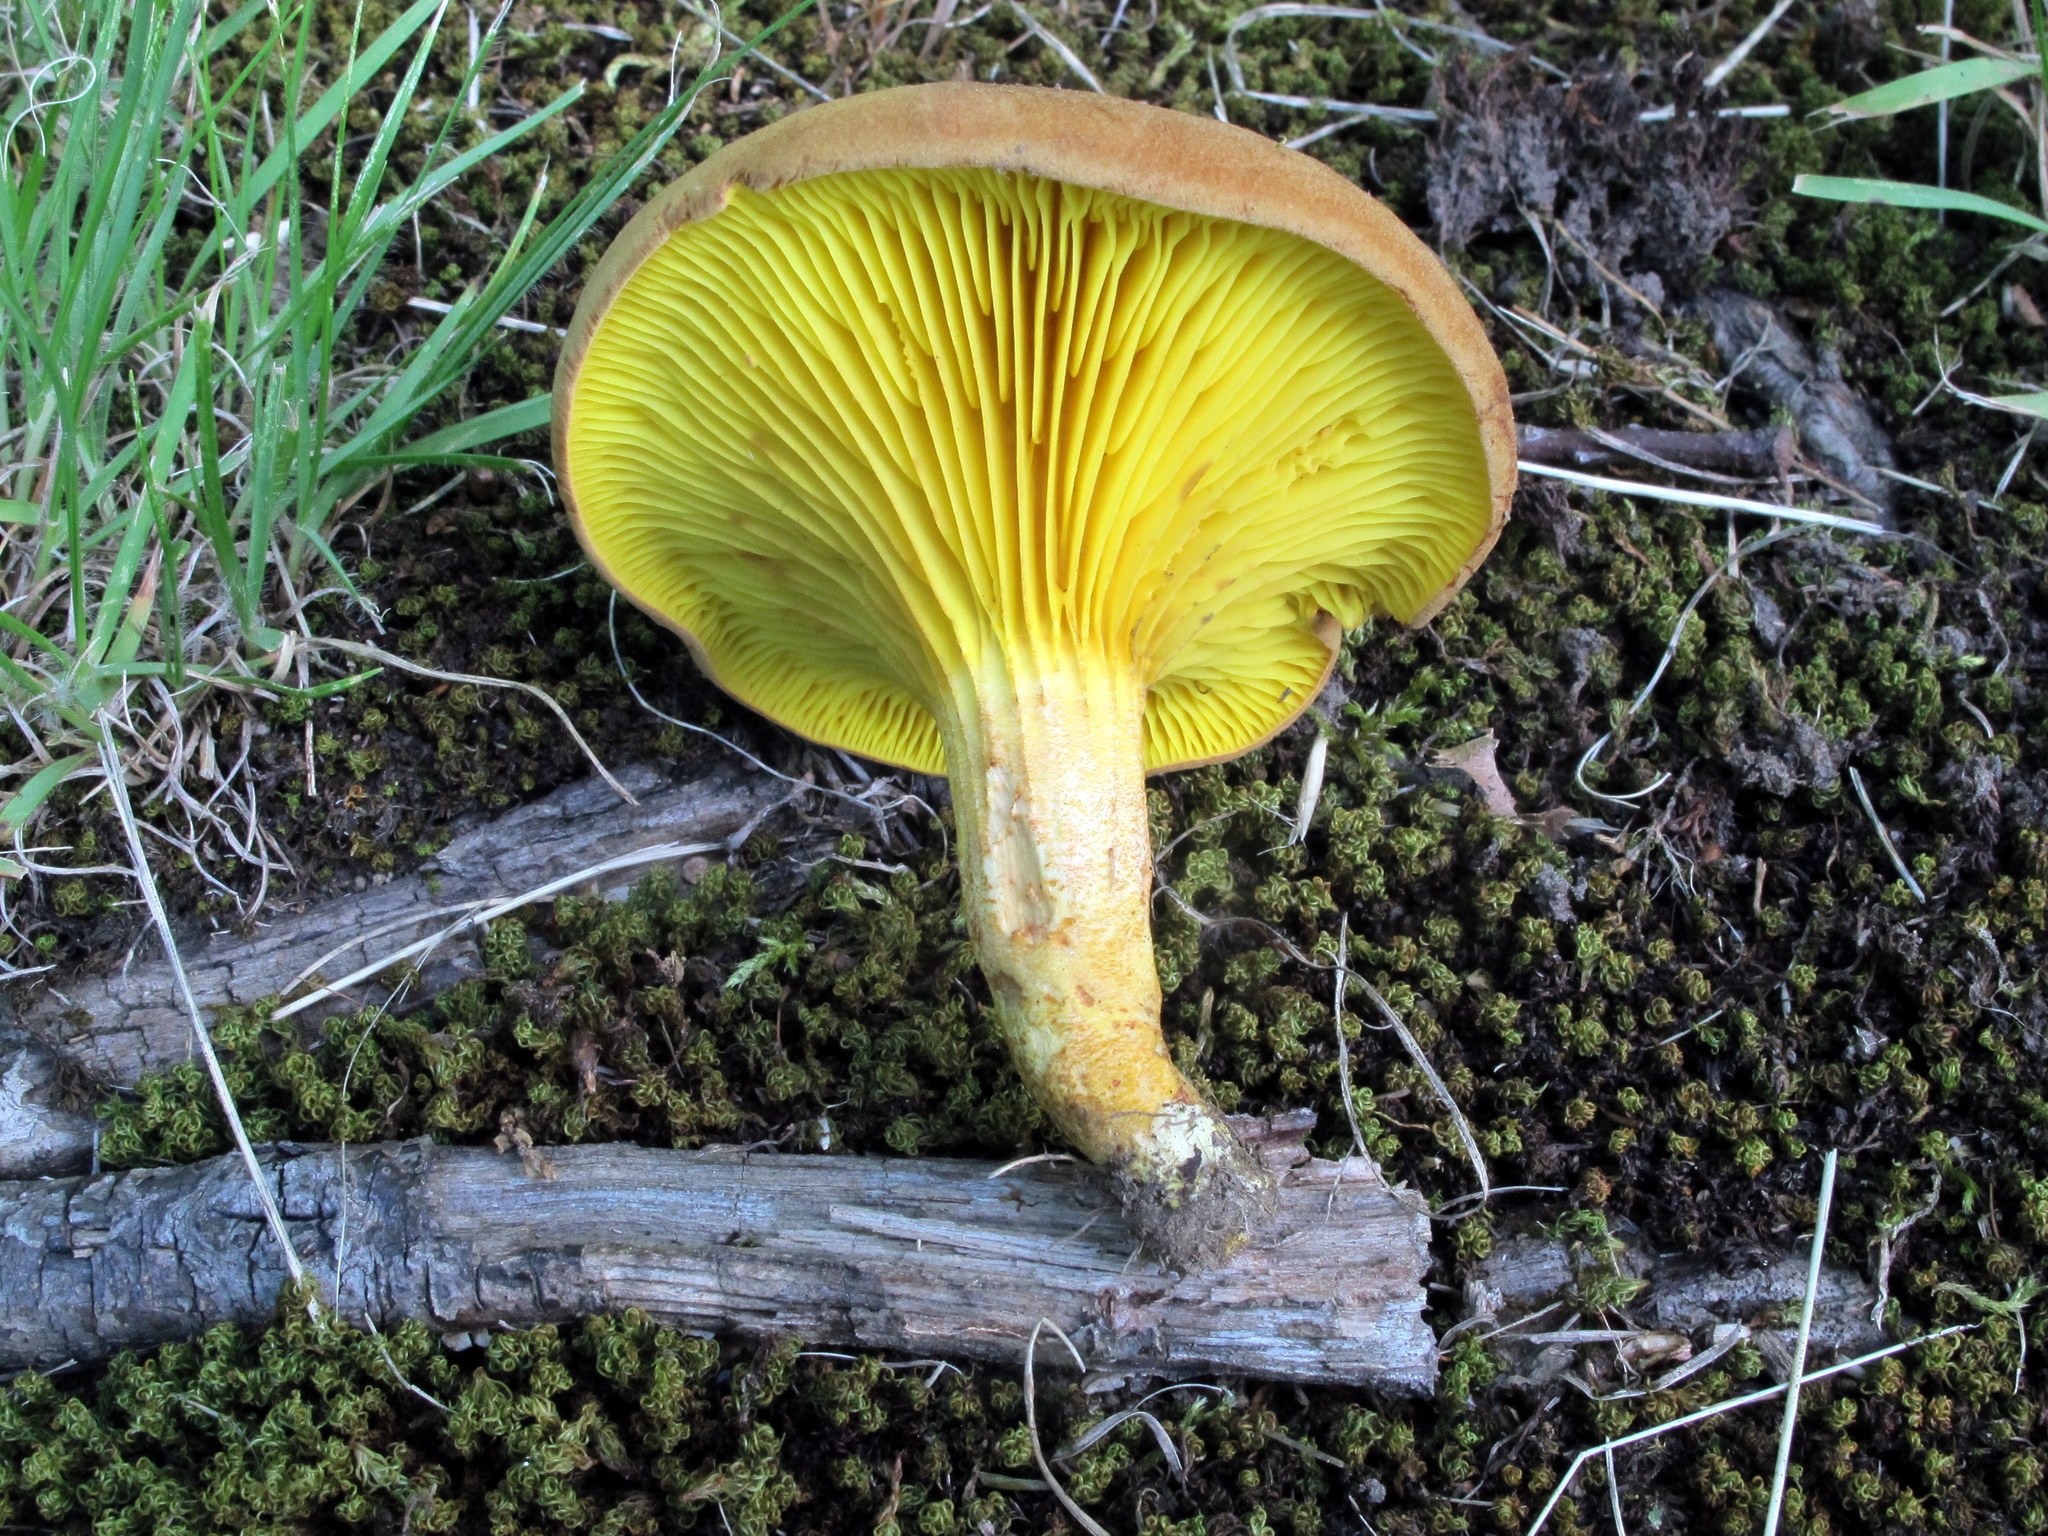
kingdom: Fungi
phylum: Basidiomycota
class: Agaricomycetes
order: Boletales
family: Boletaceae
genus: Phylloporus
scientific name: Phylloporus rhodoxanthus
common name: Golden gilled bolete
